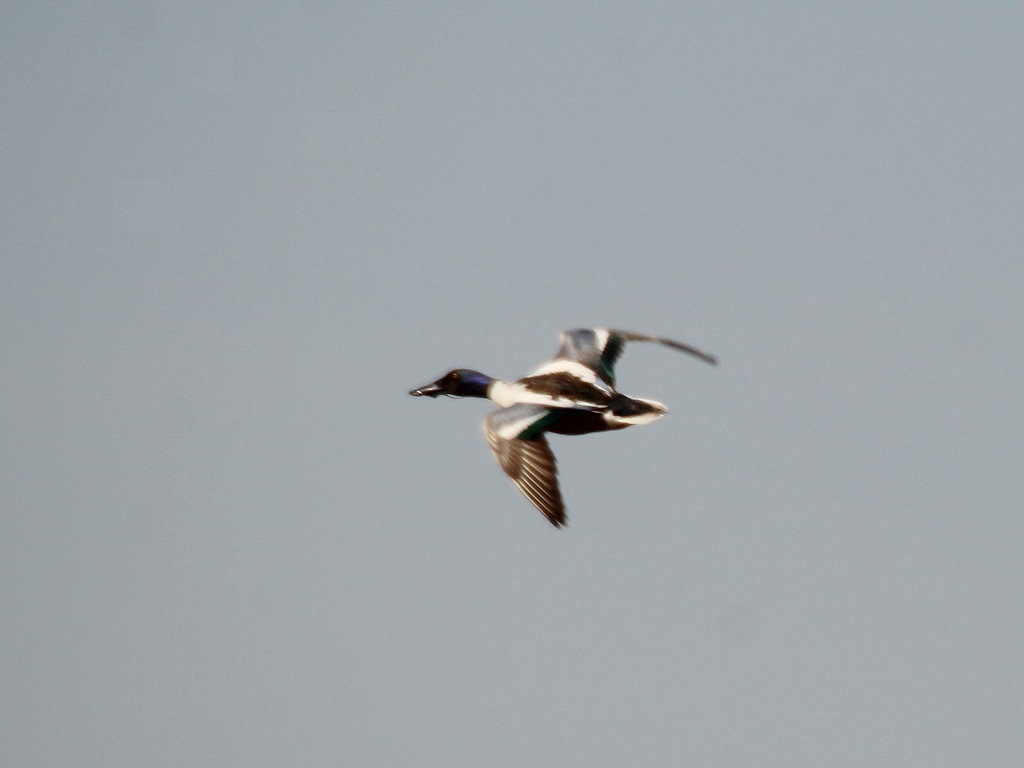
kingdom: Animalia
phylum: Chordata
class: Aves
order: Anseriformes
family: Anatidae
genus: Spatula
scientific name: Spatula clypeata
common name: Northern shoveler
